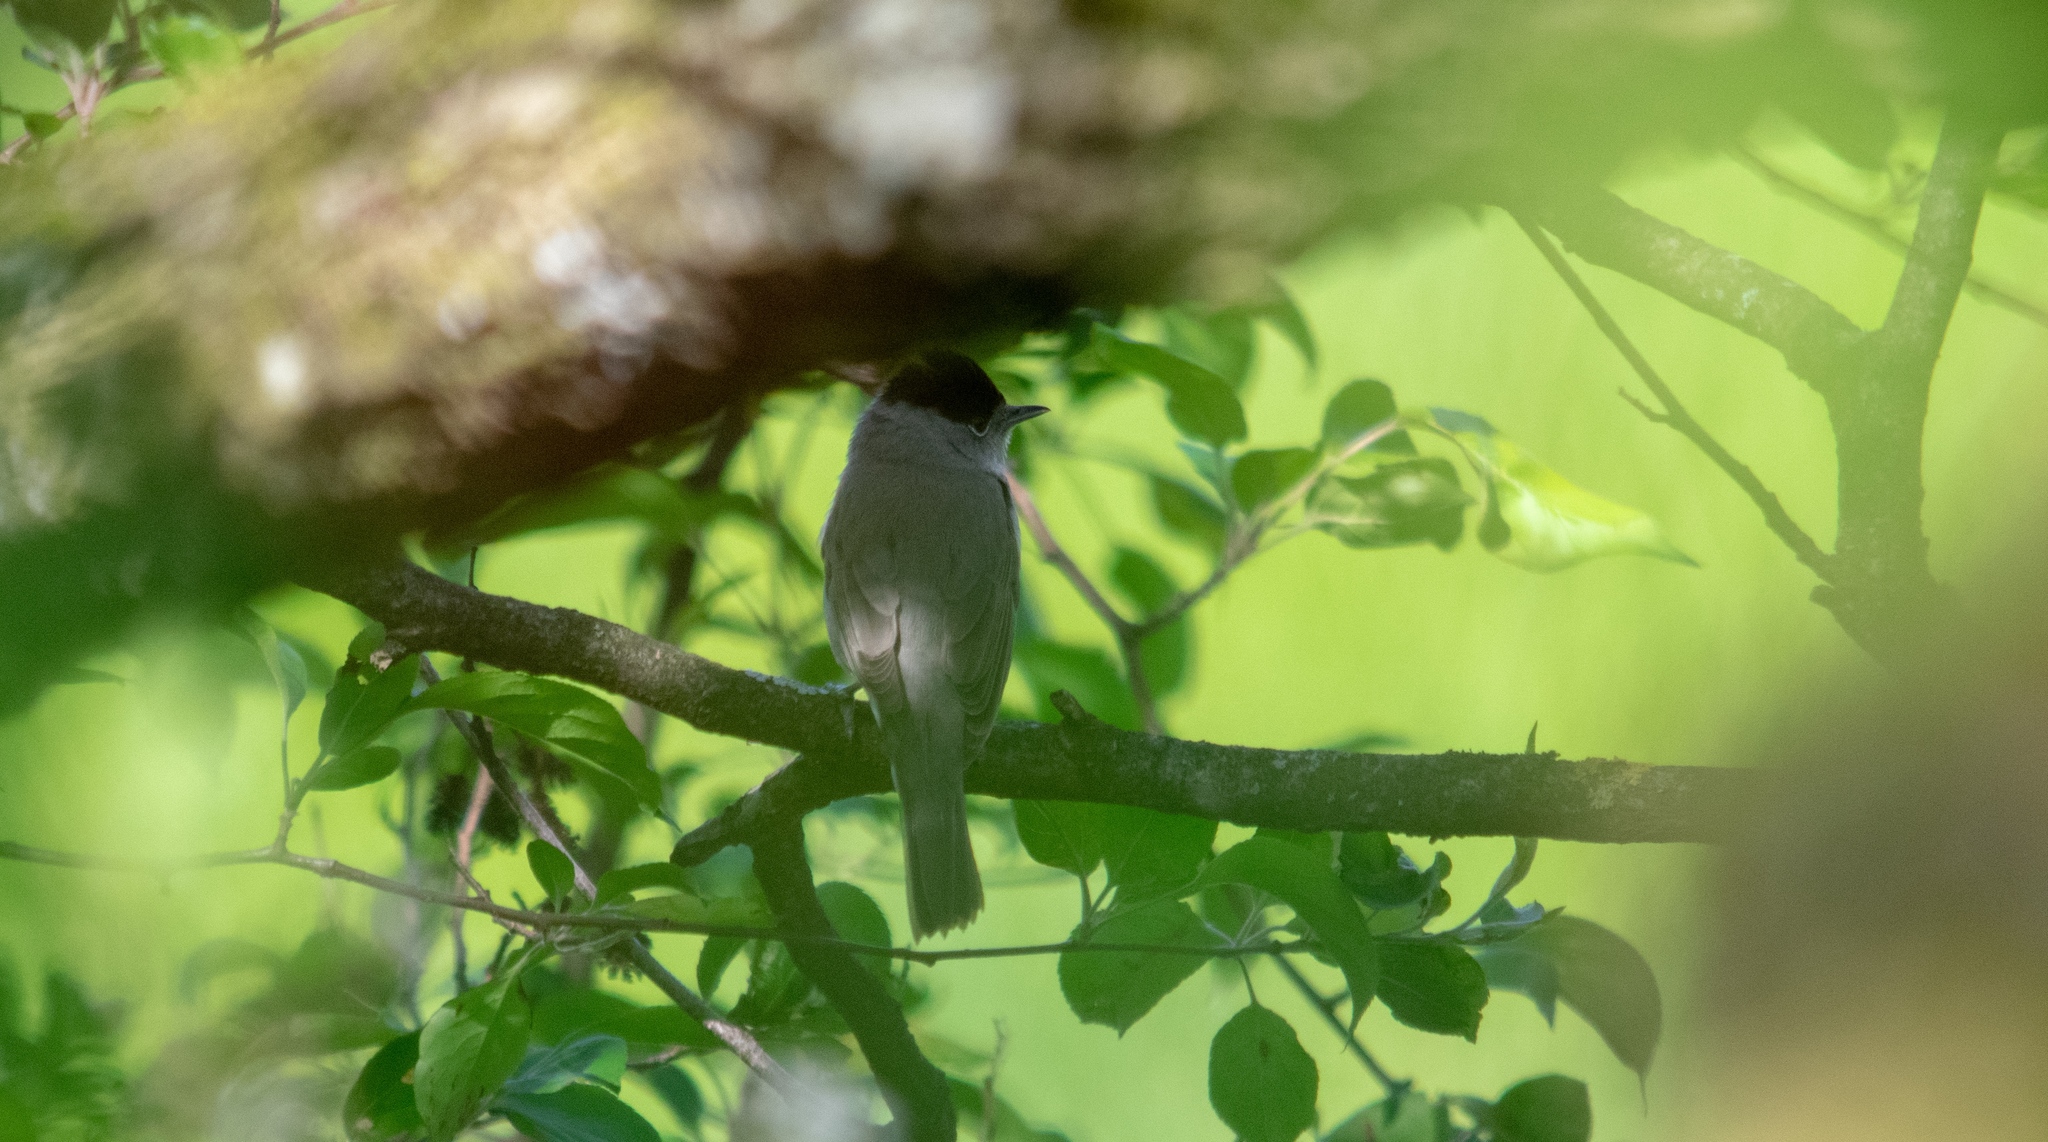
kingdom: Animalia
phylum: Chordata
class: Aves
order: Passeriformes
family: Sylviidae
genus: Sylvia
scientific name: Sylvia atricapilla
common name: Eurasian blackcap
